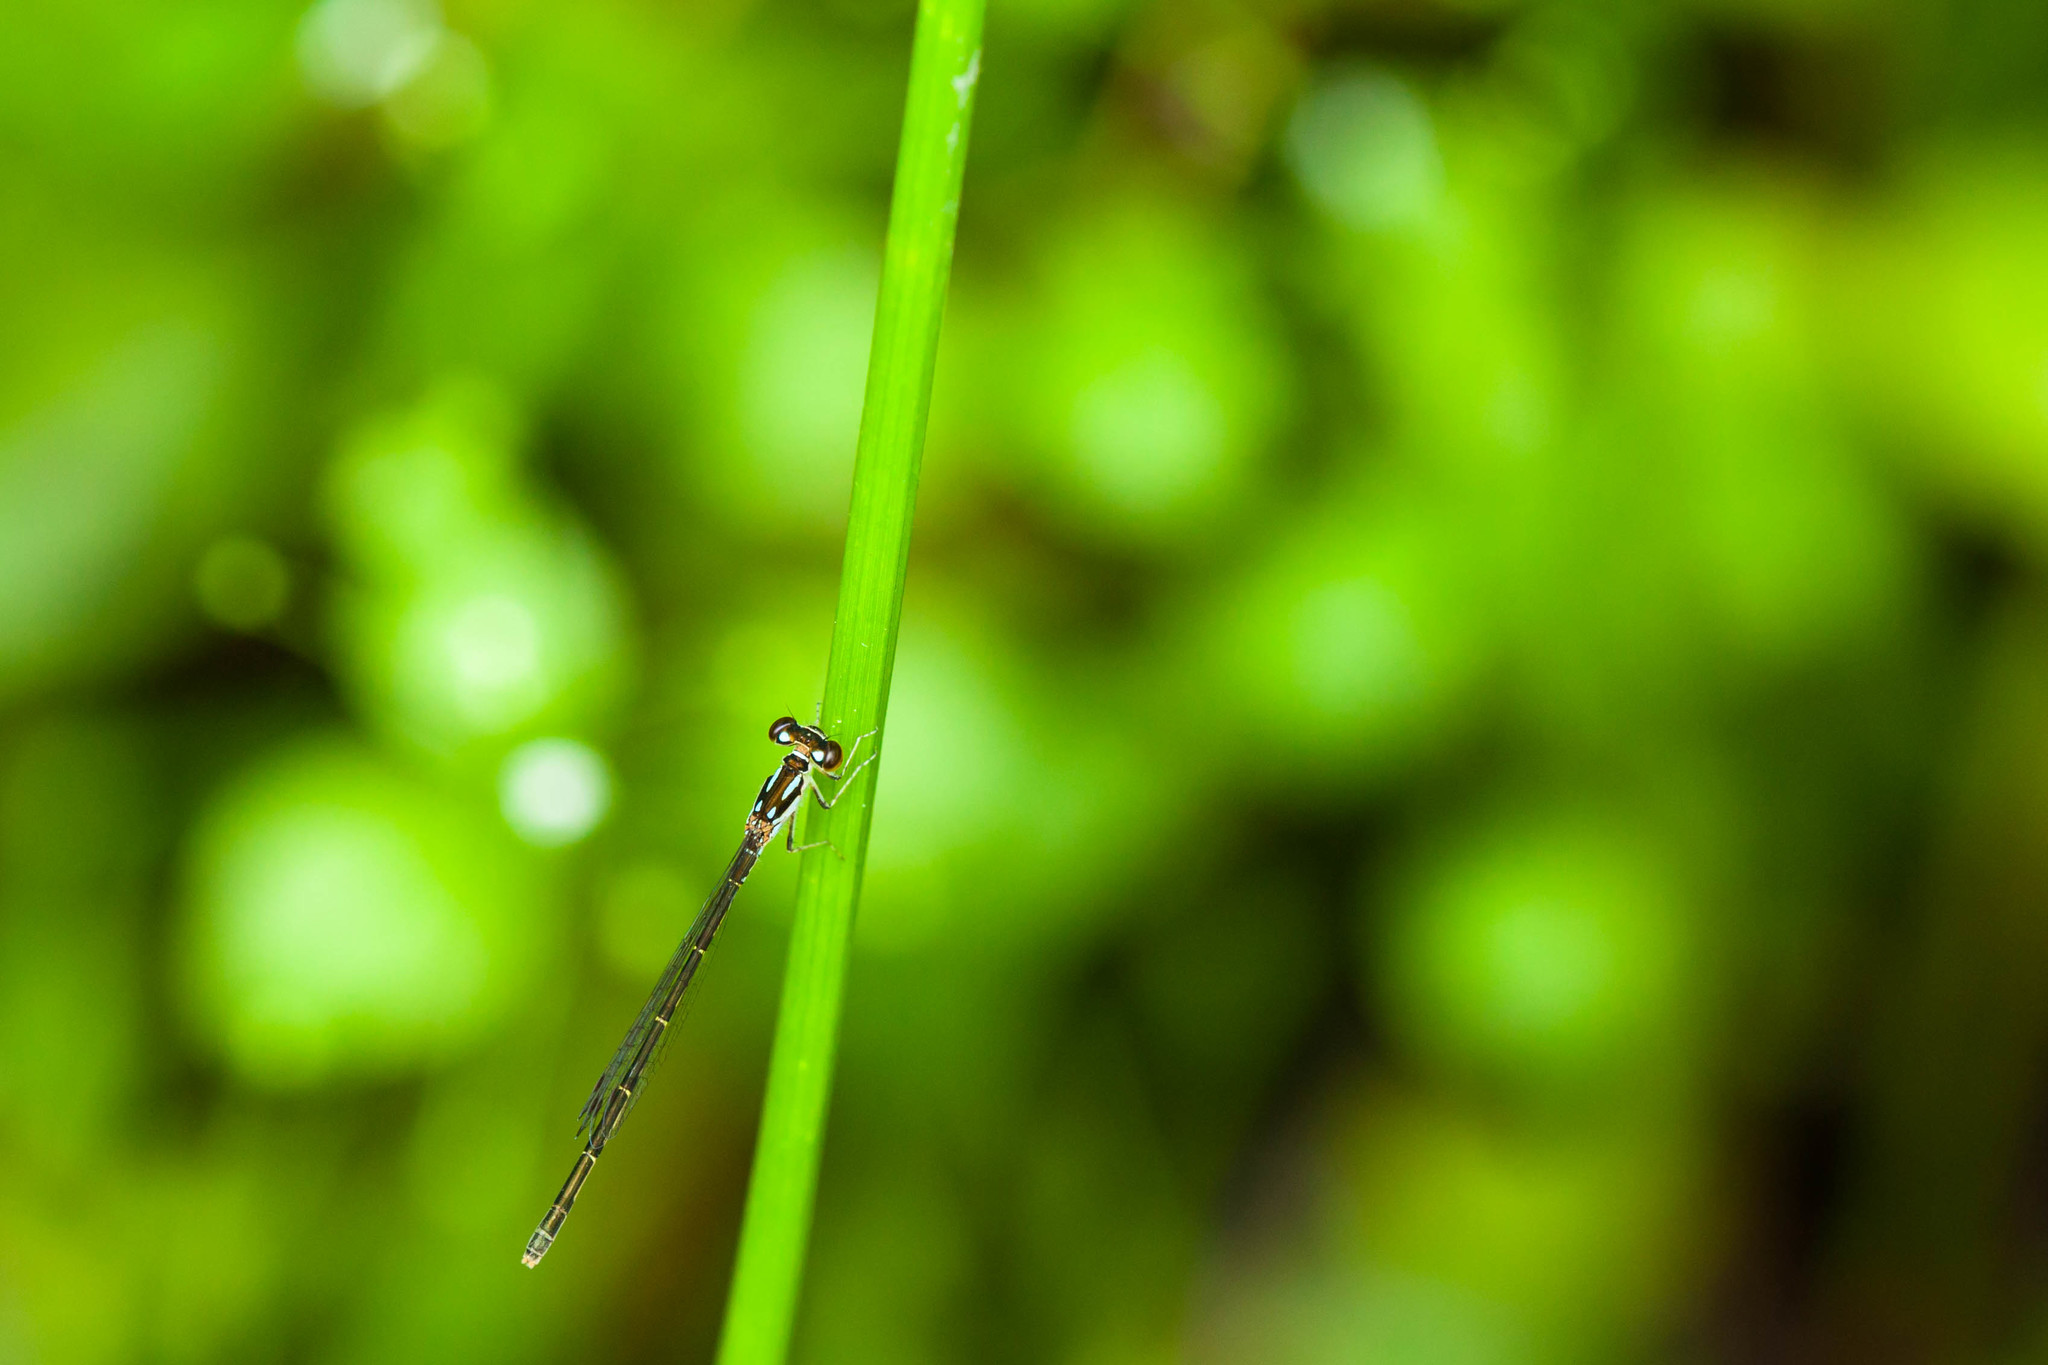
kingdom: Animalia
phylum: Arthropoda
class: Insecta
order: Odonata
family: Coenagrionidae
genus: Ischnura
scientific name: Ischnura posita
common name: Fragile forktail
